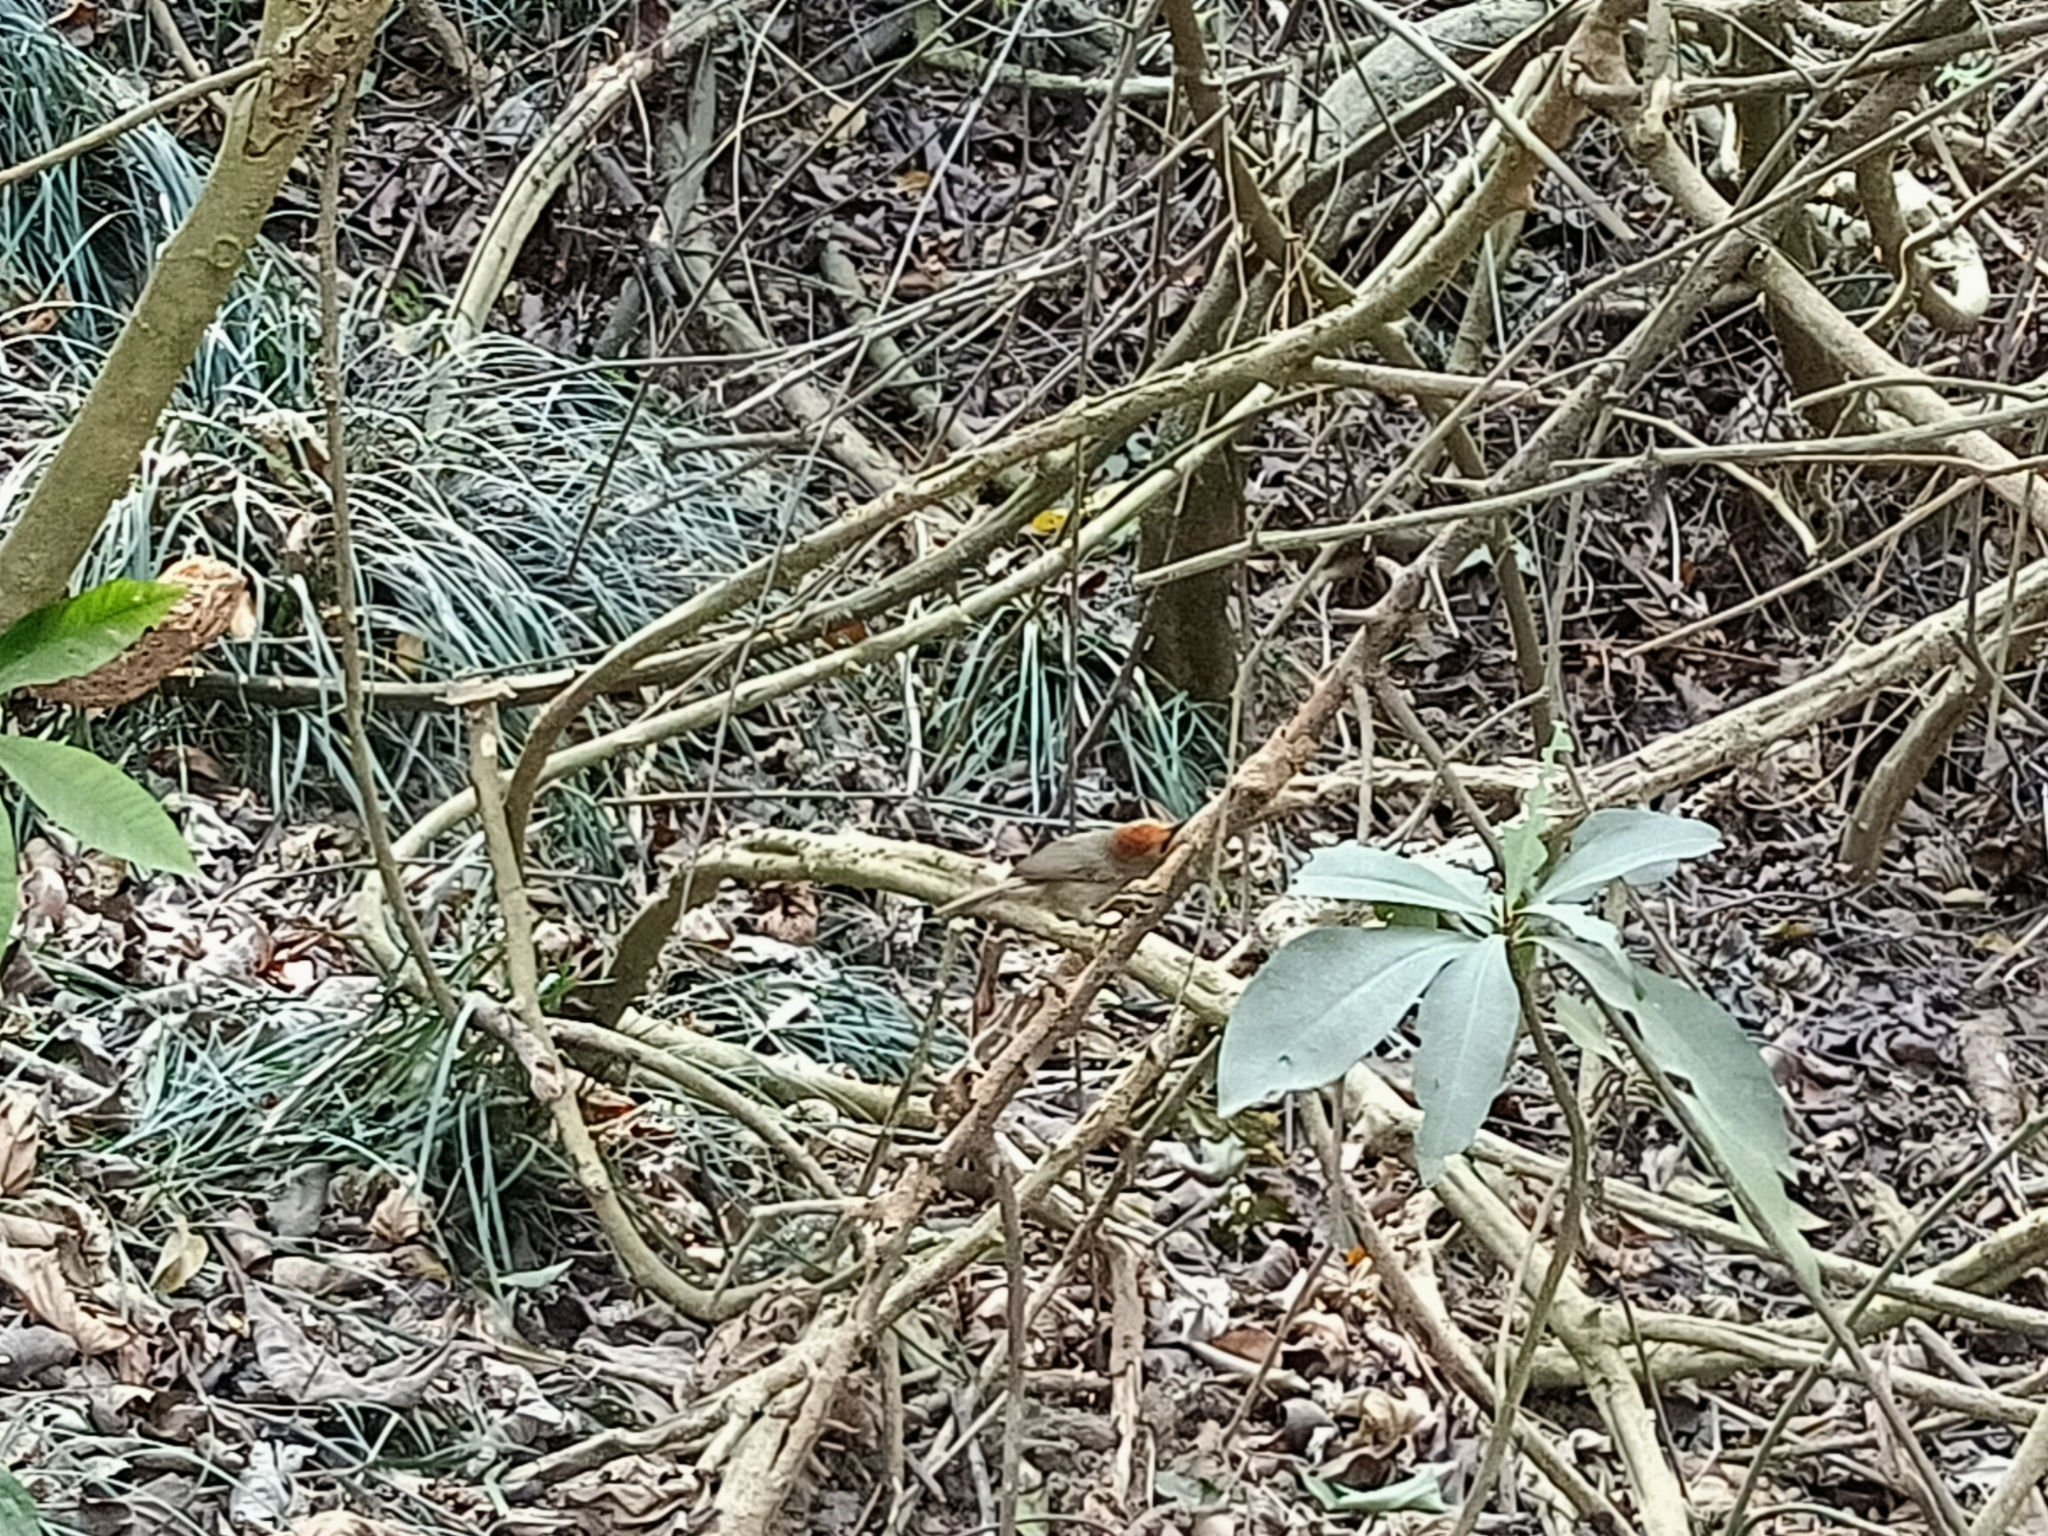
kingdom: Animalia
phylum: Chordata
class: Aves
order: Passeriformes
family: Timaliidae
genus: Stachyridopsis
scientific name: Stachyridopsis ruficeps
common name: Rufous-capped babbler
